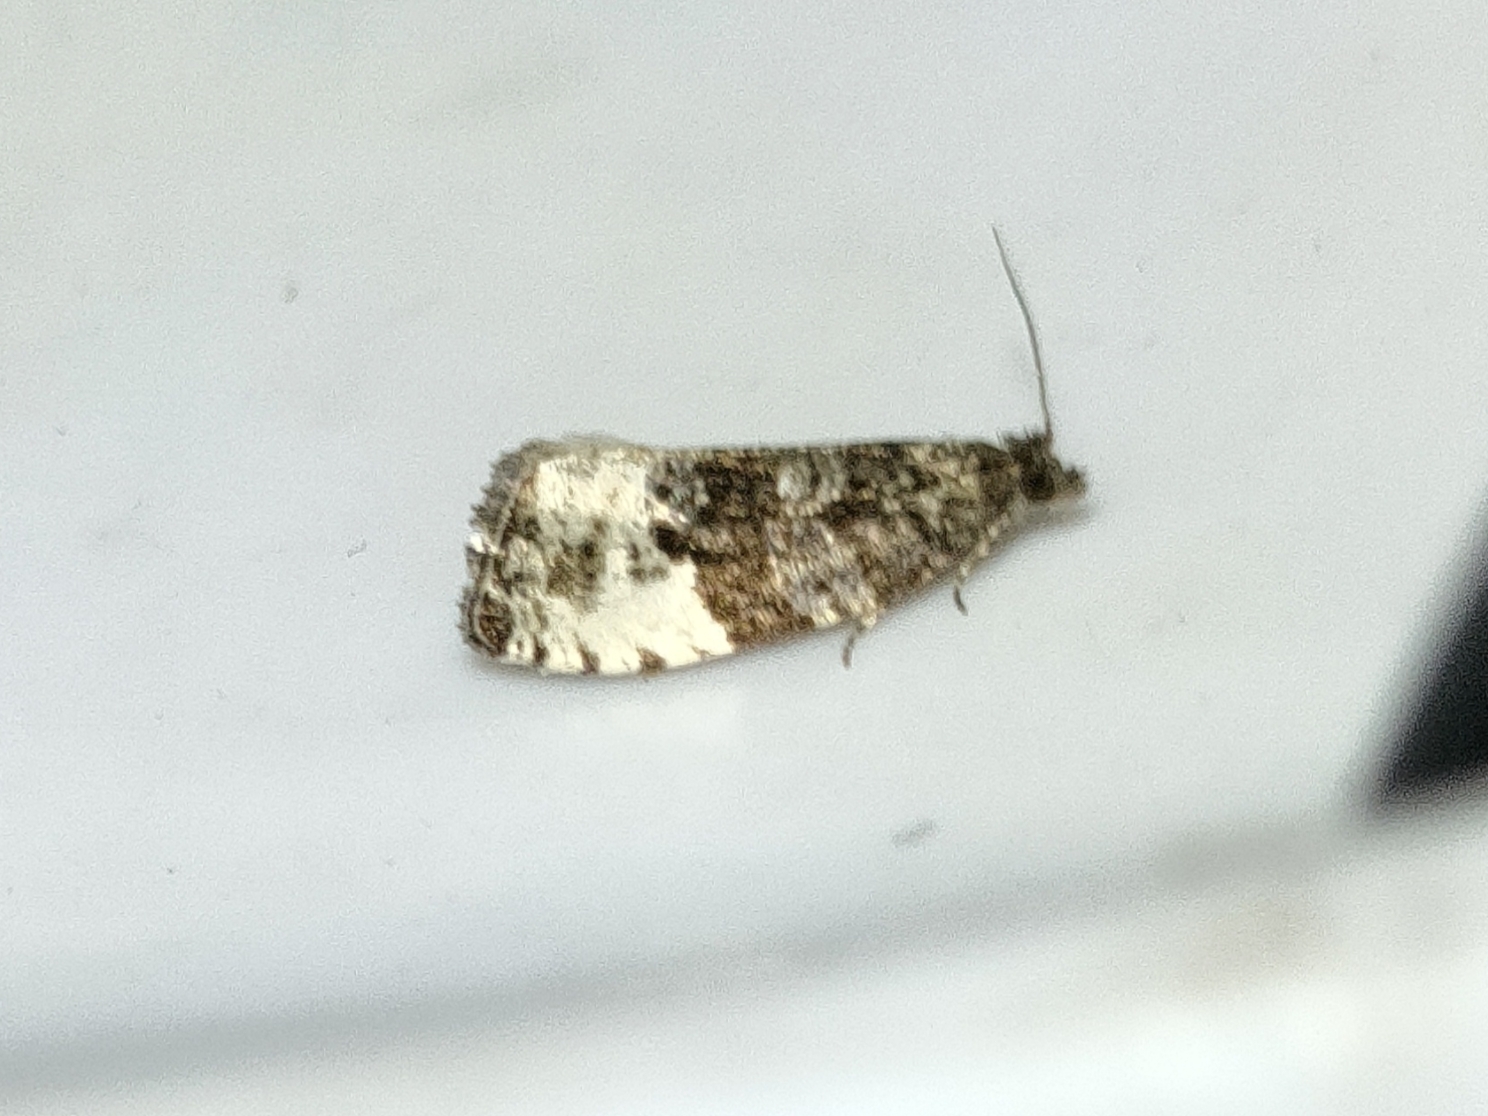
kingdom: Animalia
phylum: Arthropoda
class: Insecta
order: Lepidoptera
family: Tortricidae
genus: Hedya
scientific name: Hedya pruniana
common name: Plum tortrix
